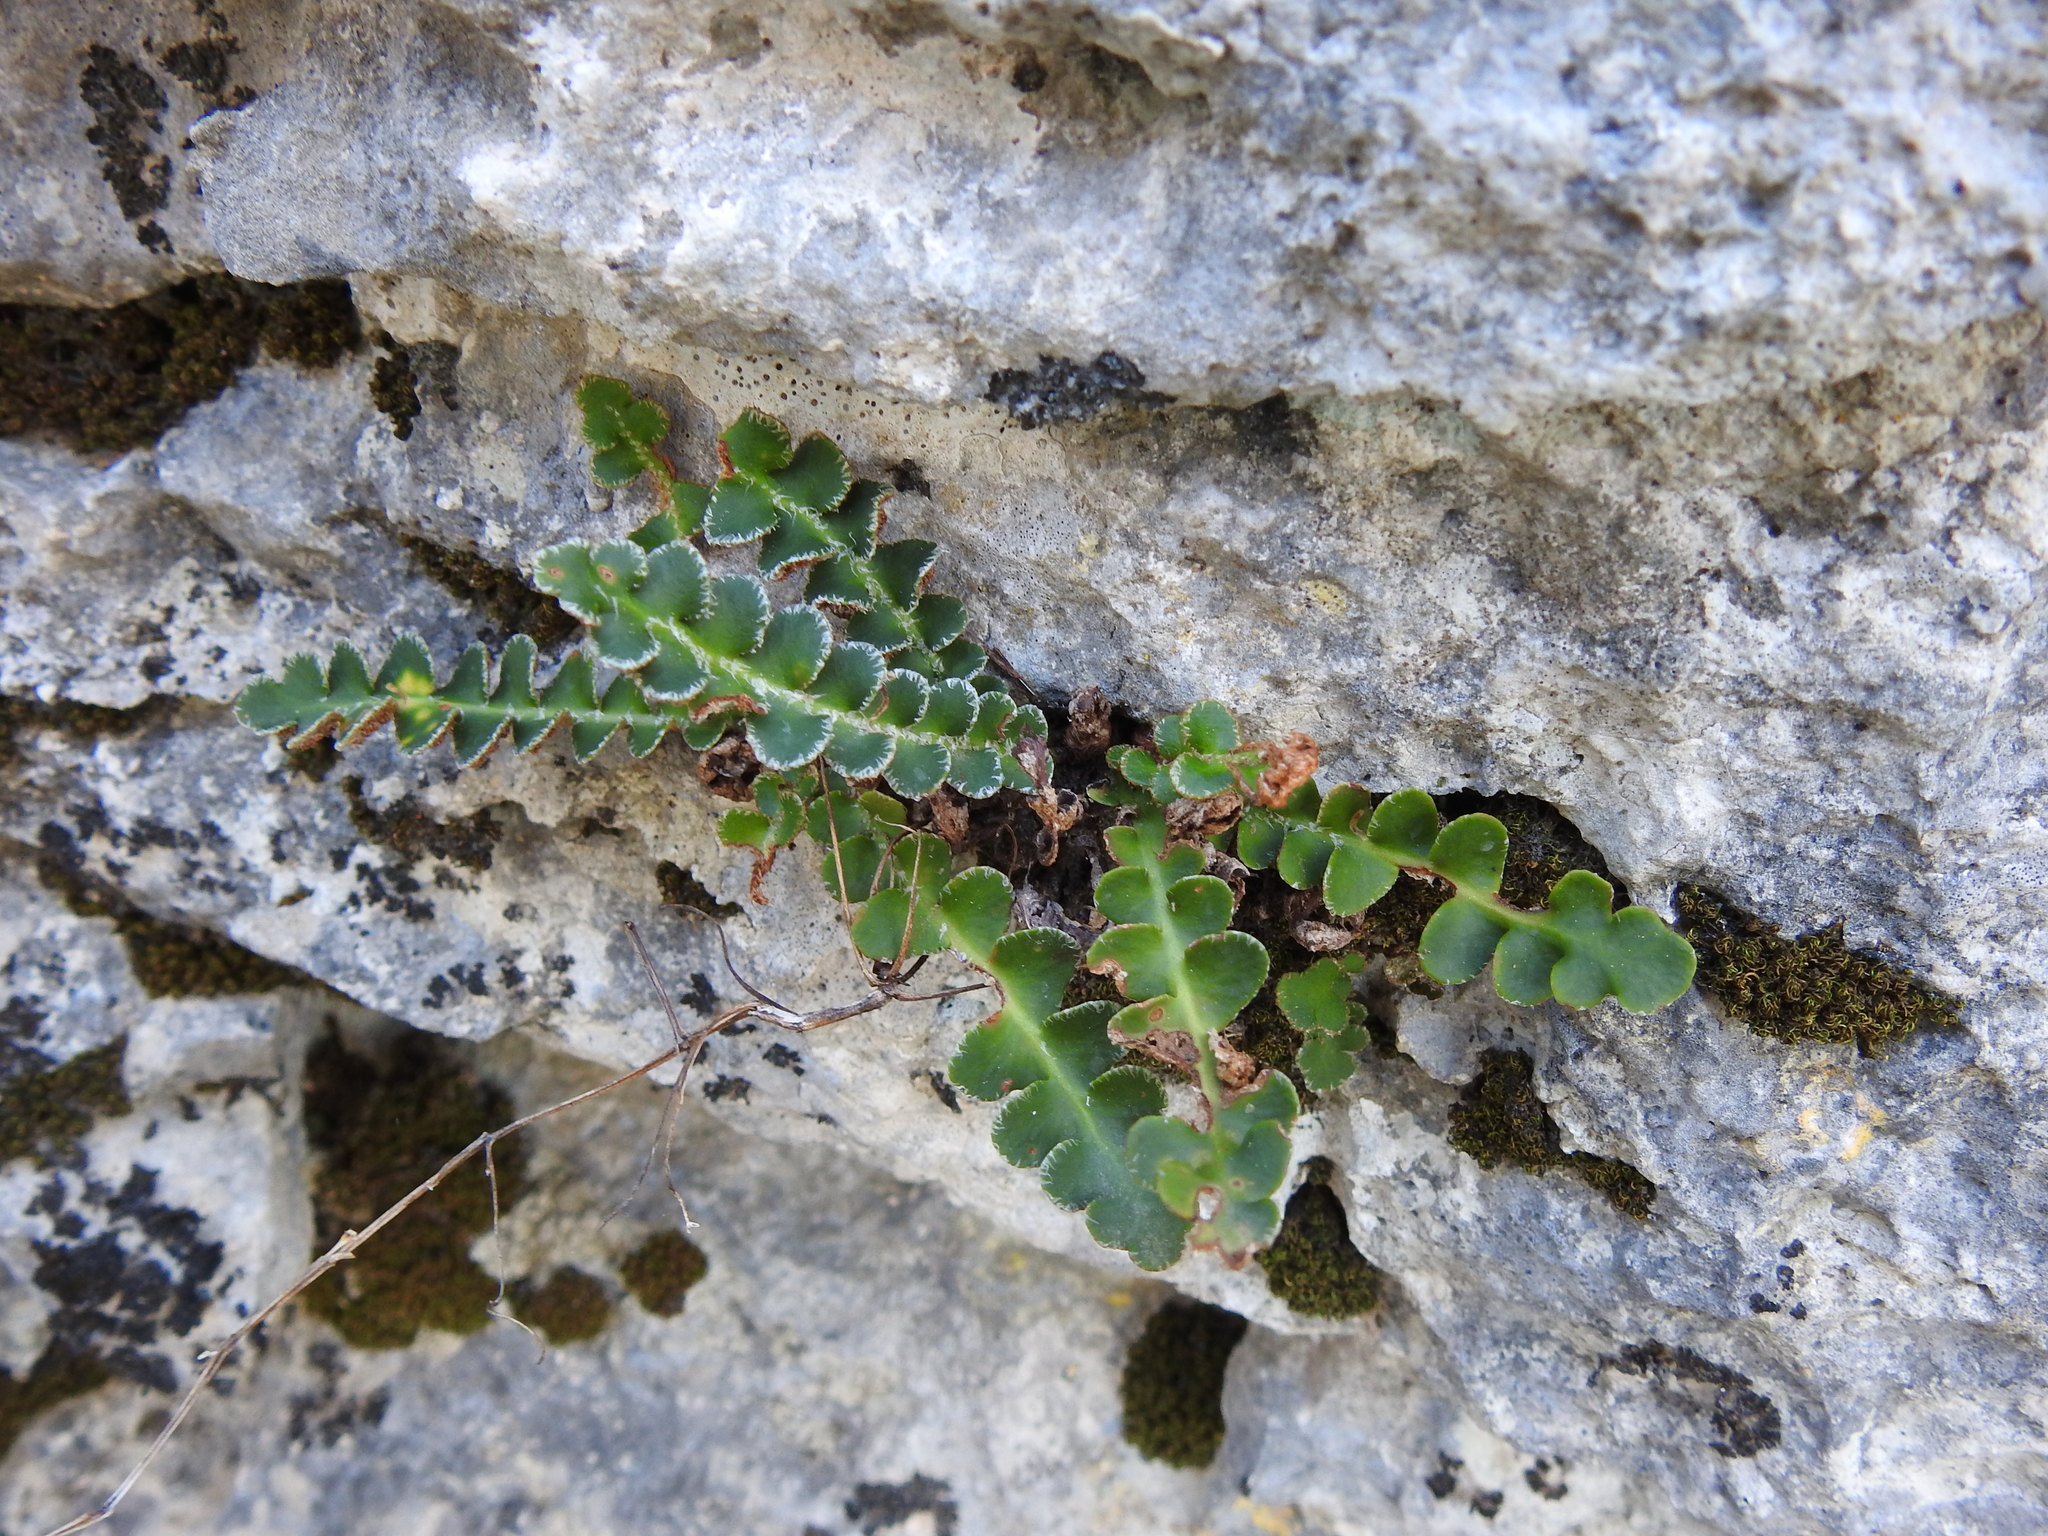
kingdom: Plantae
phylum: Tracheophyta
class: Polypodiopsida
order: Polypodiales
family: Aspleniaceae
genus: Asplenium
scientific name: Asplenium ceterach
